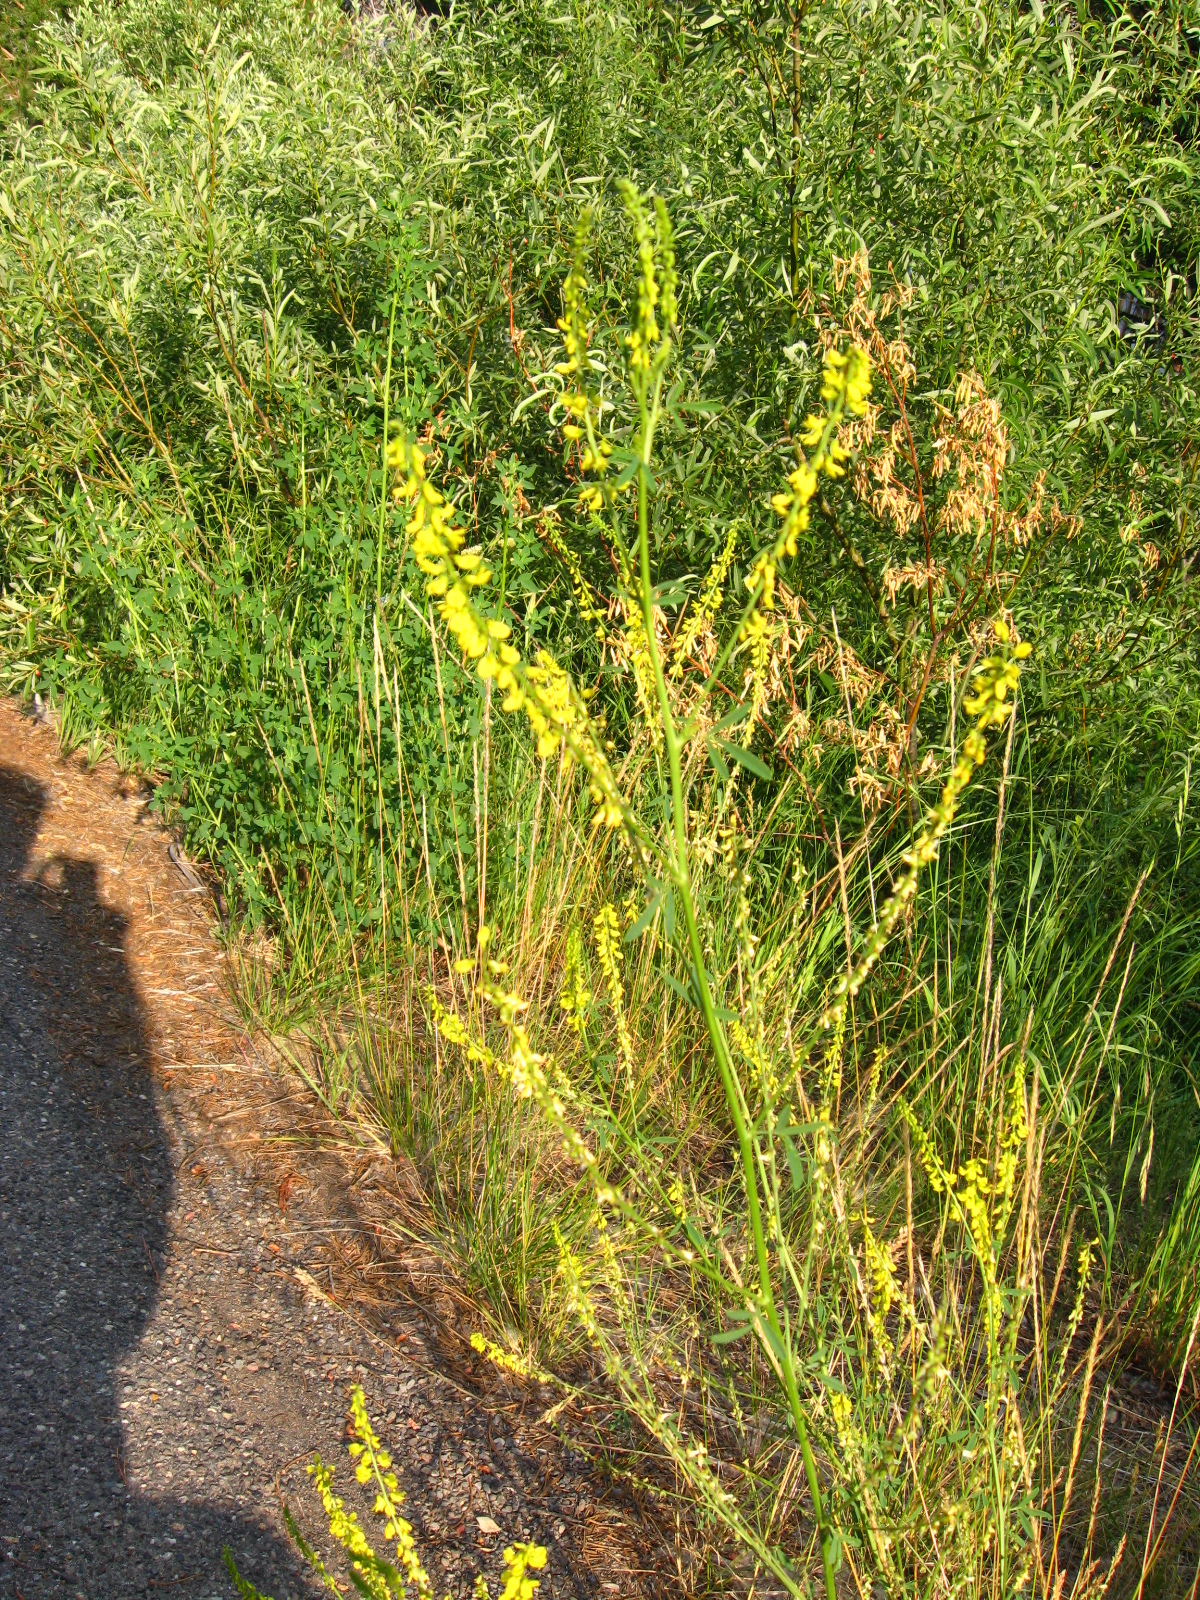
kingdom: Plantae
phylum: Tracheophyta
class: Magnoliopsida
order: Fabales
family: Fabaceae
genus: Melilotus
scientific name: Melilotus officinalis
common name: Sweetclover
